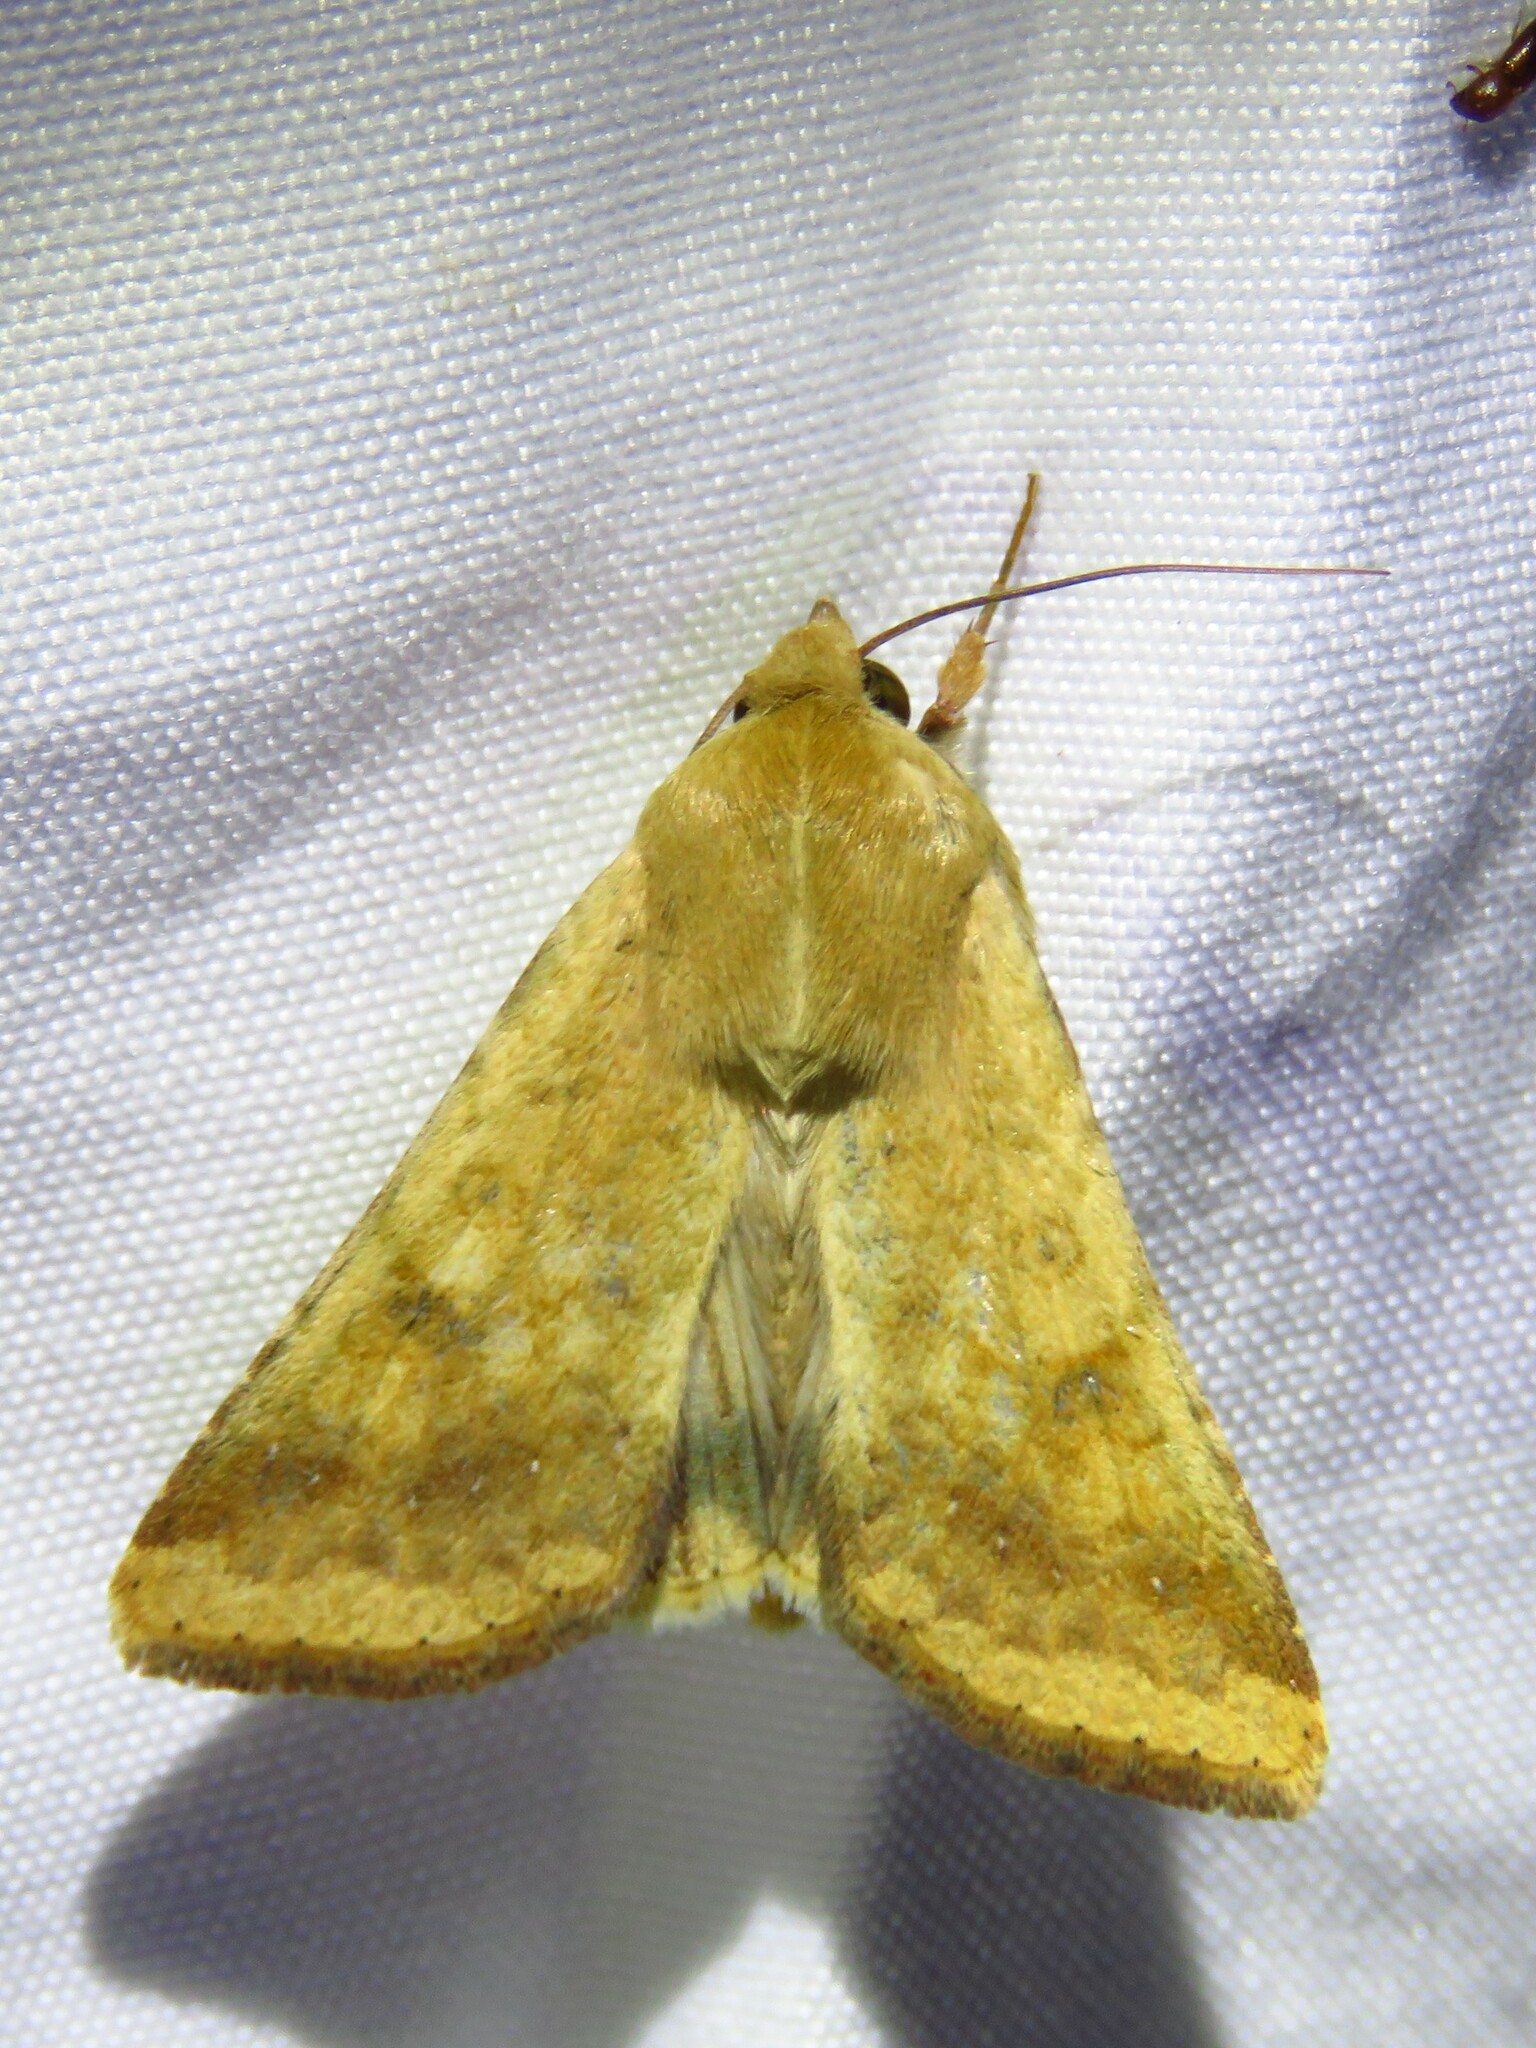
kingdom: Animalia
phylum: Arthropoda
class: Insecta
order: Lepidoptera
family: Noctuidae
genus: Helicoverpa
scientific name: Helicoverpa zea
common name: Bollworm
